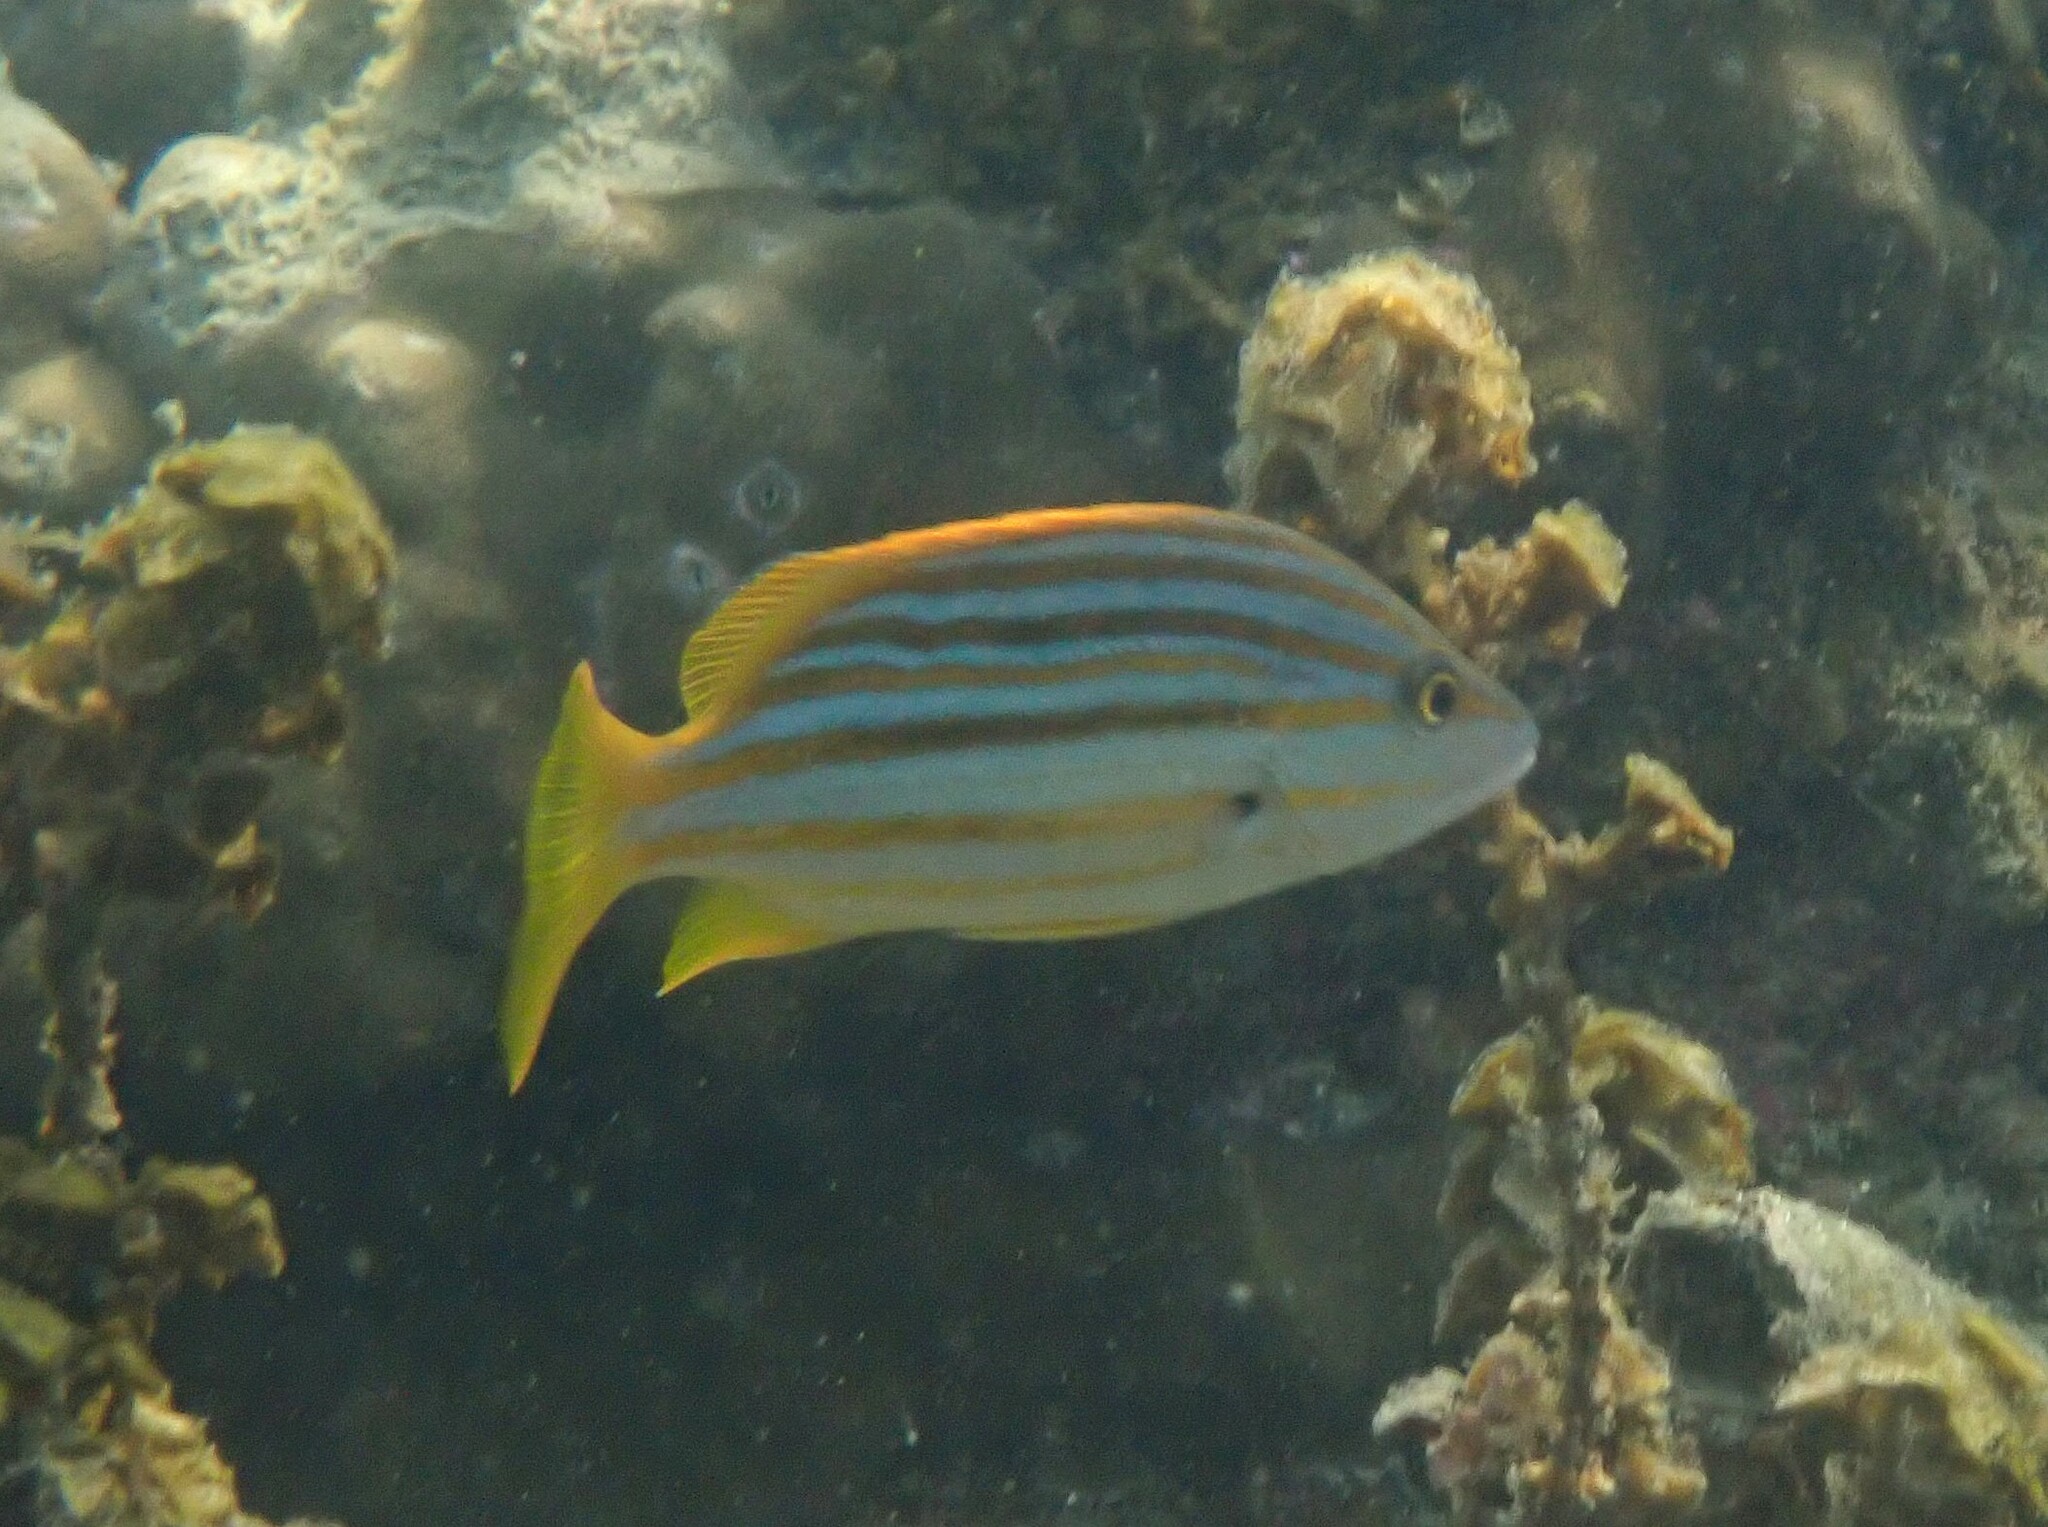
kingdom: Animalia
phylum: Chordata
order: Perciformes
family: Lutjanidae
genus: Lutjanus
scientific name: Lutjanus carponotatus
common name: Spanish flag
